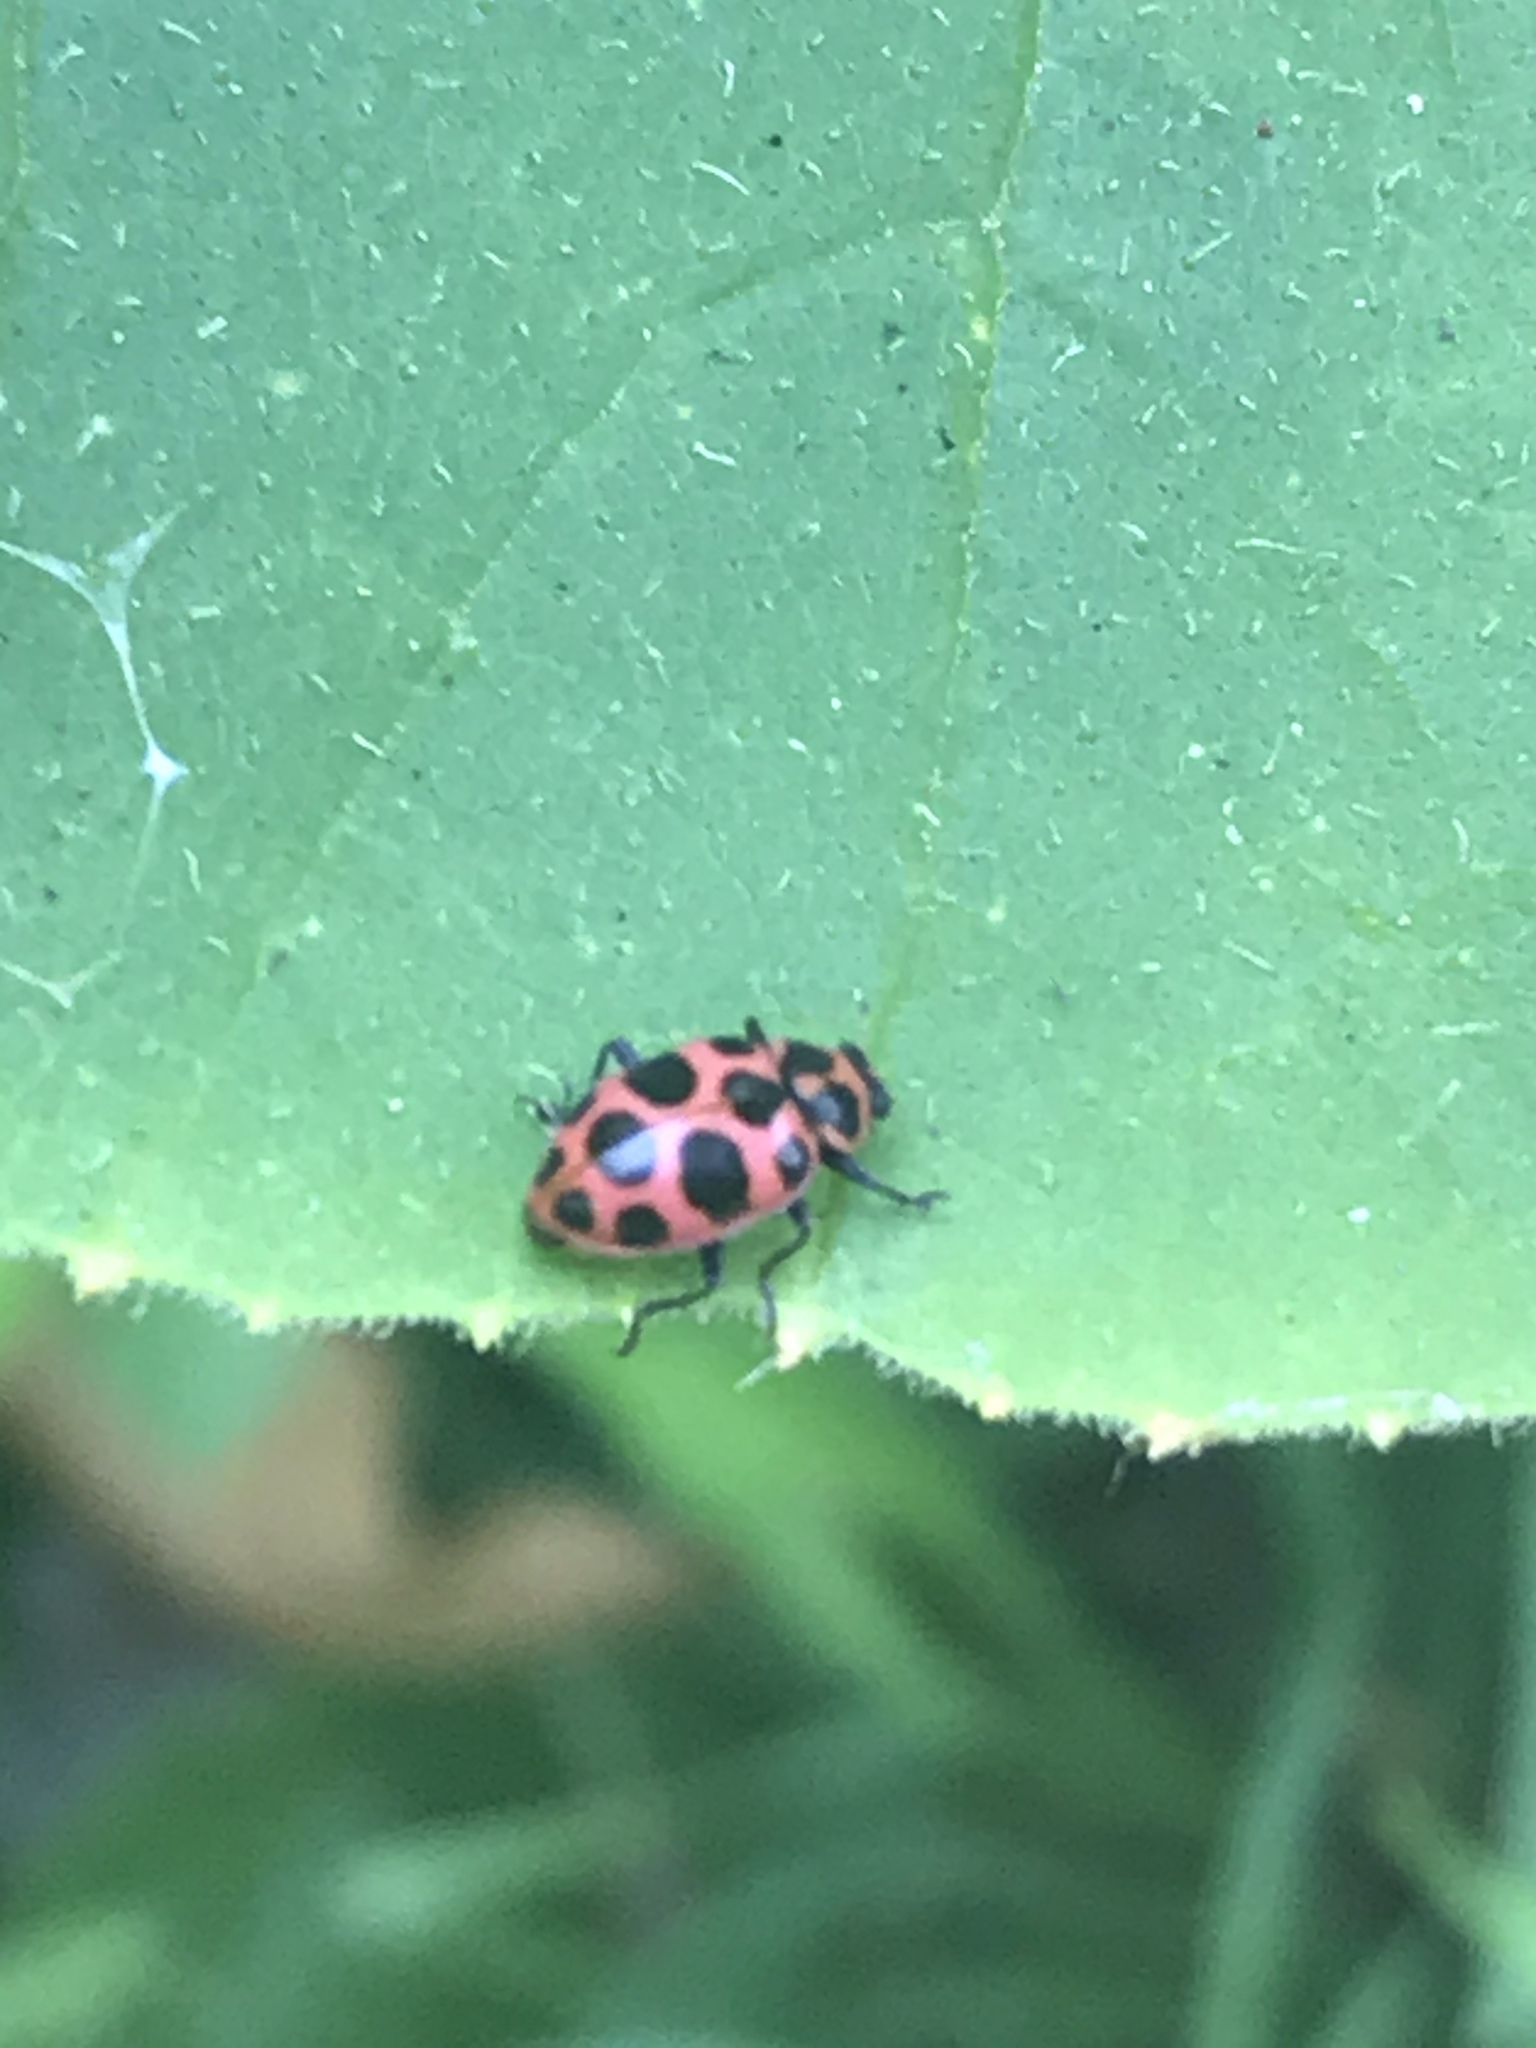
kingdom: Animalia
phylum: Arthropoda
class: Insecta
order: Coleoptera
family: Coccinellidae
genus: Coleomegilla
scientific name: Coleomegilla maculata
